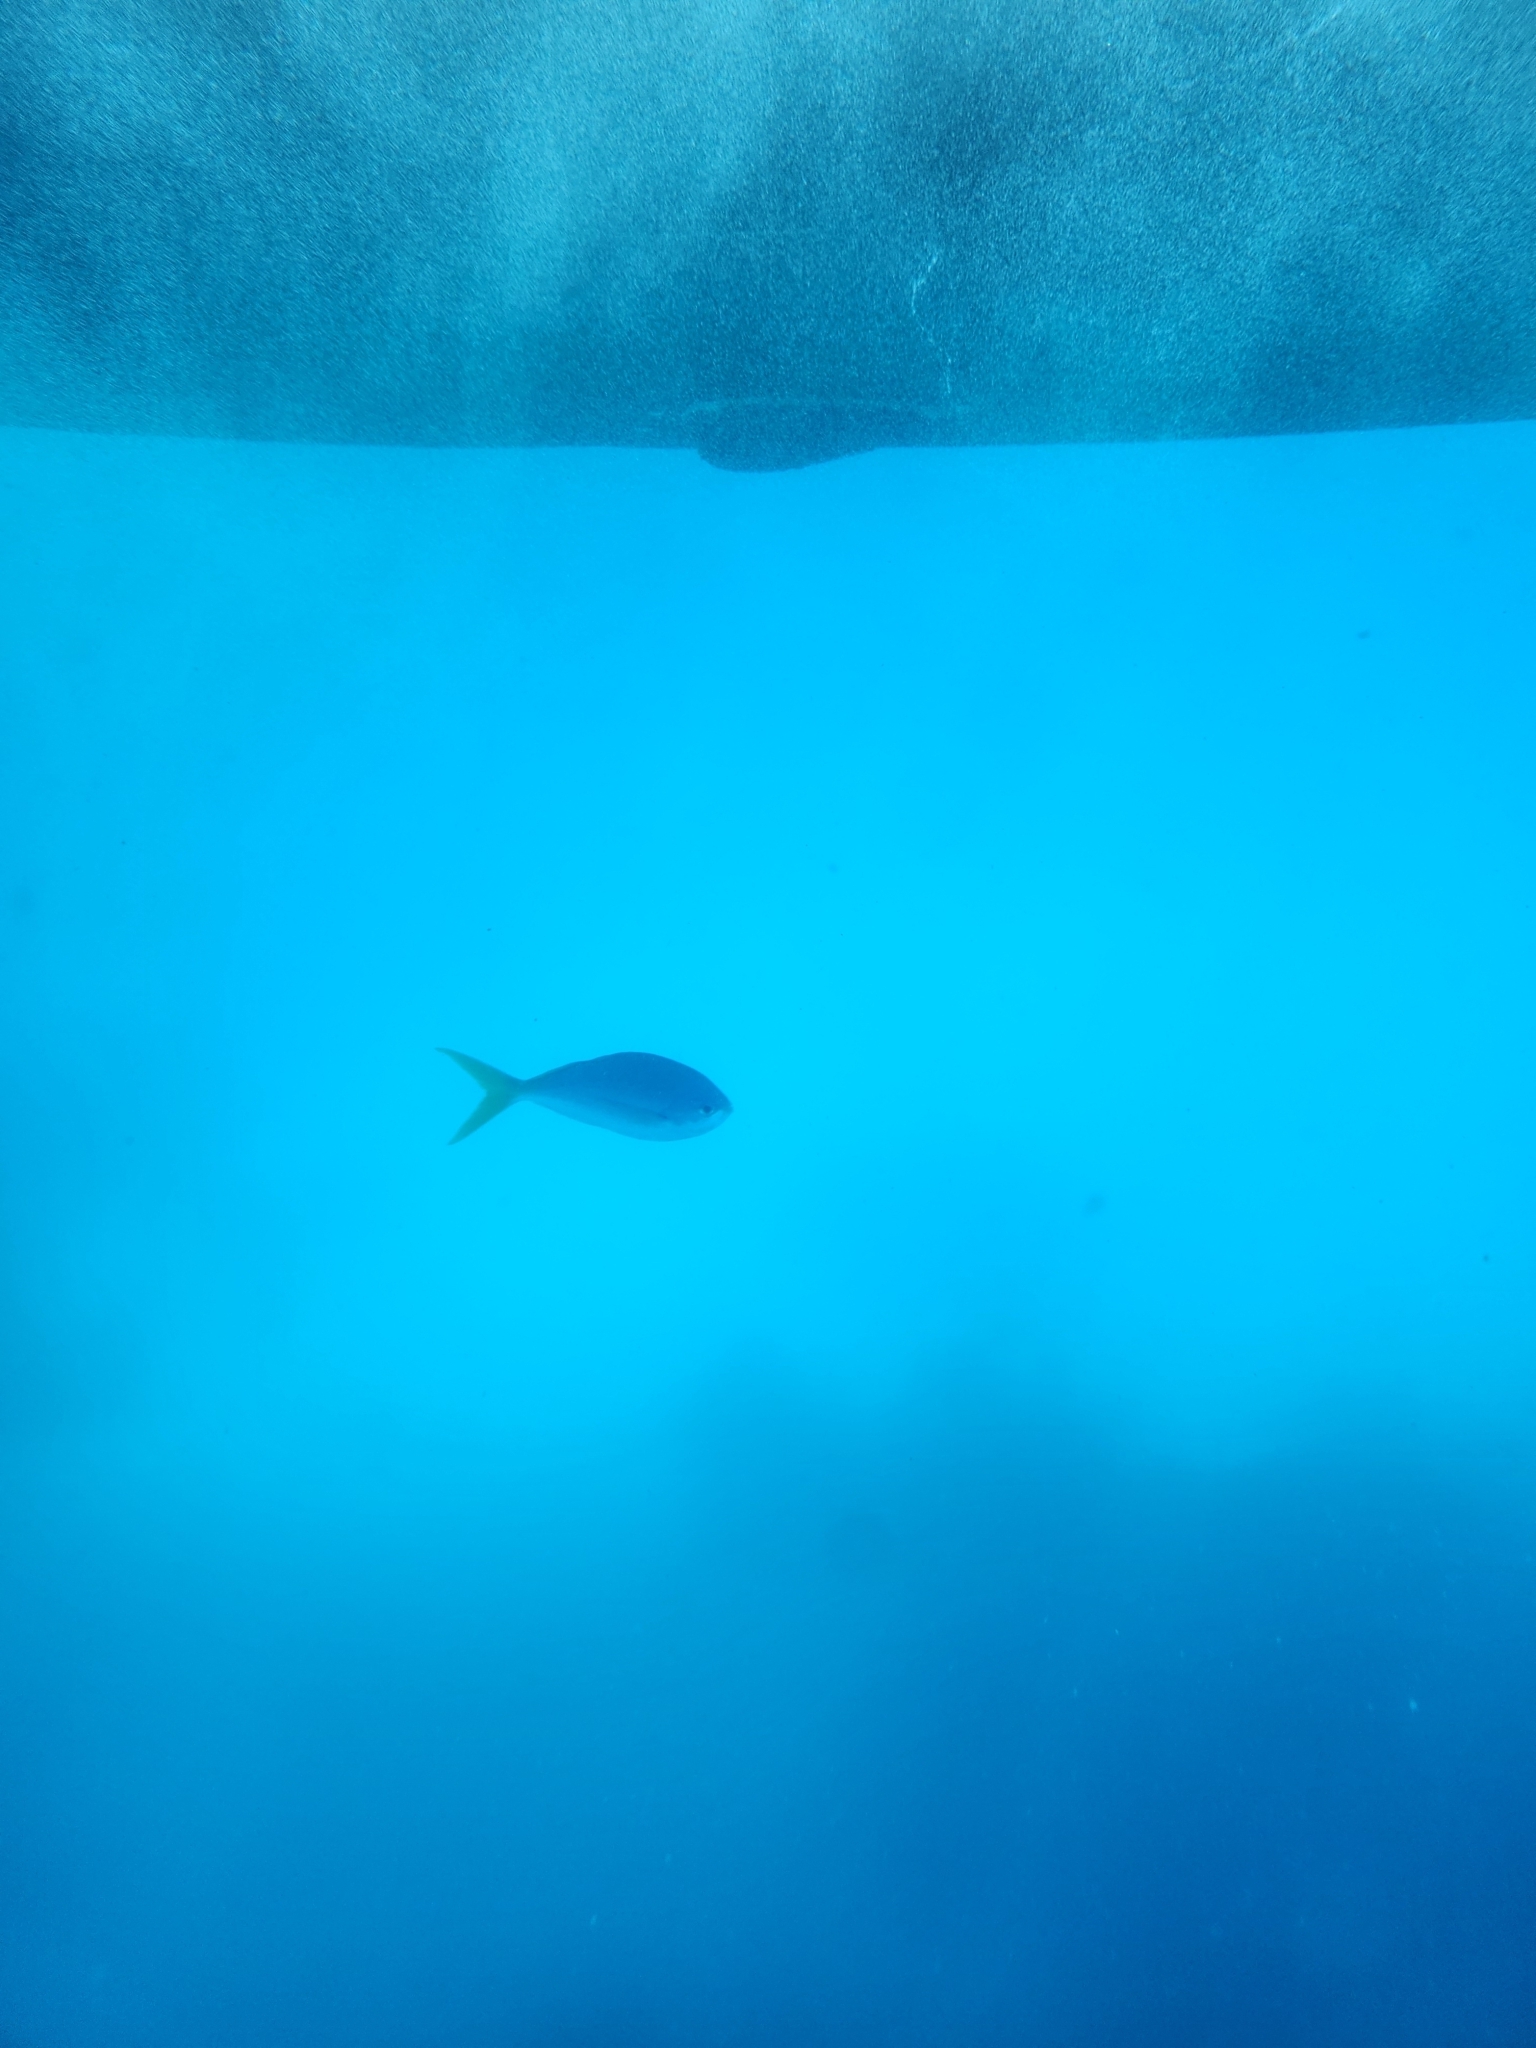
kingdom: Animalia
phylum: Chordata
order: Perciformes
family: Caesionidae
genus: Caesio
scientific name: Caesio cuning
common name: Red-bellied fusilier
